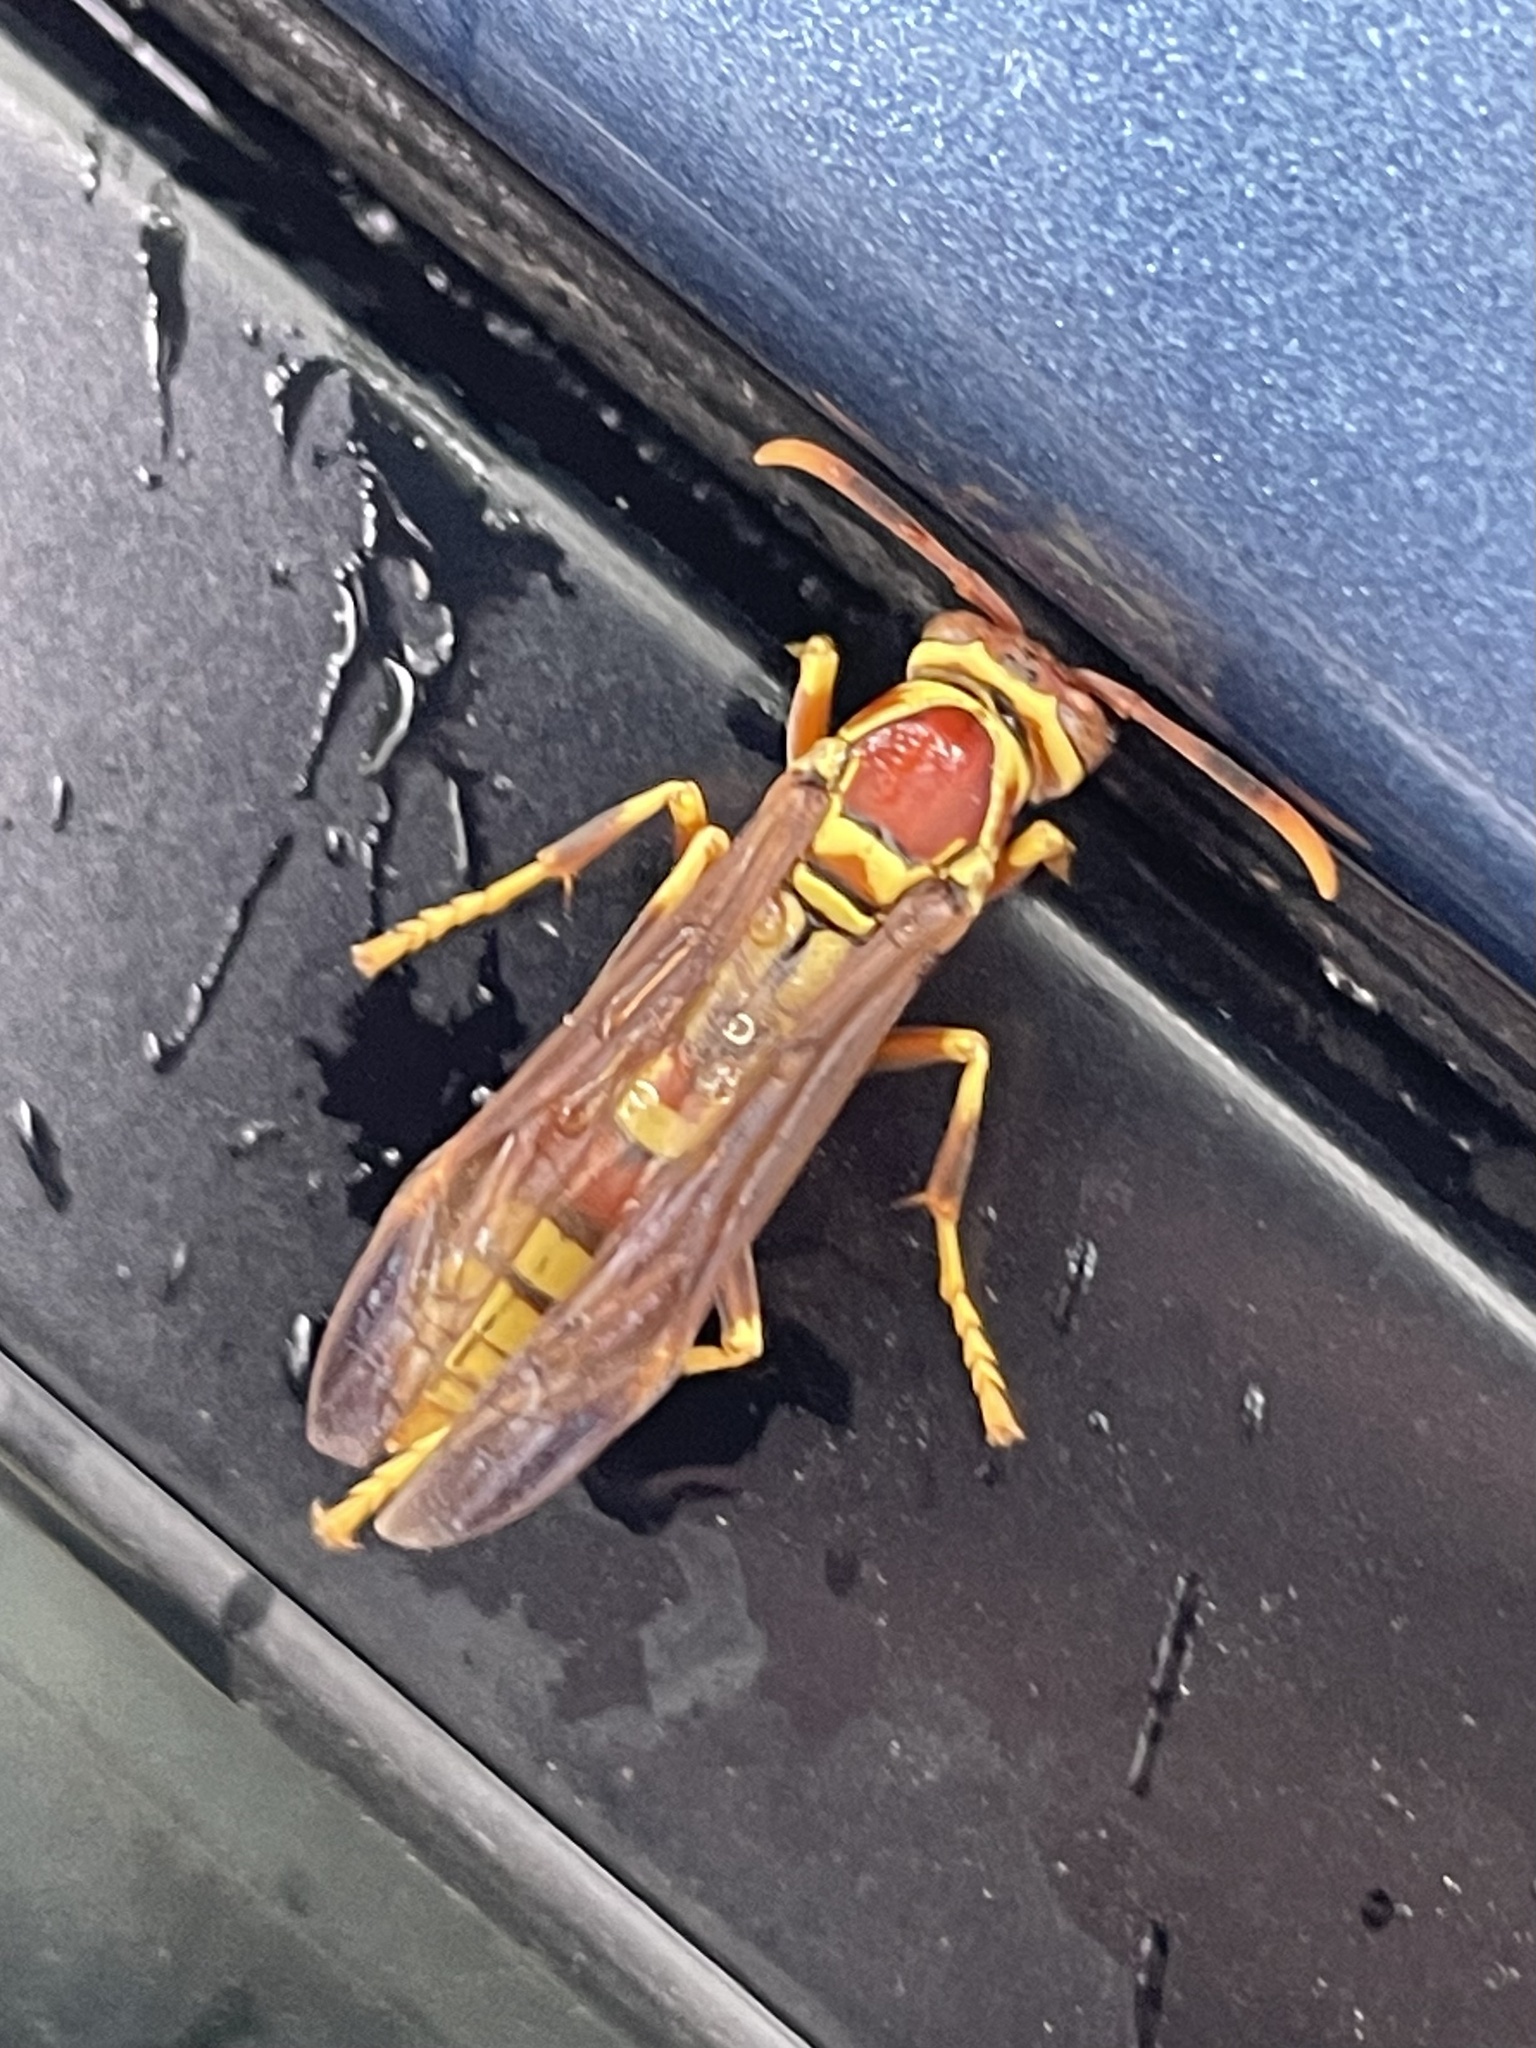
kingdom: Animalia
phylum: Arthropoda
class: Insecta
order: Hymenoptera
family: Eumenidae
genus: Polistes
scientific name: Polistes exclamans
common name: Paper wasp
